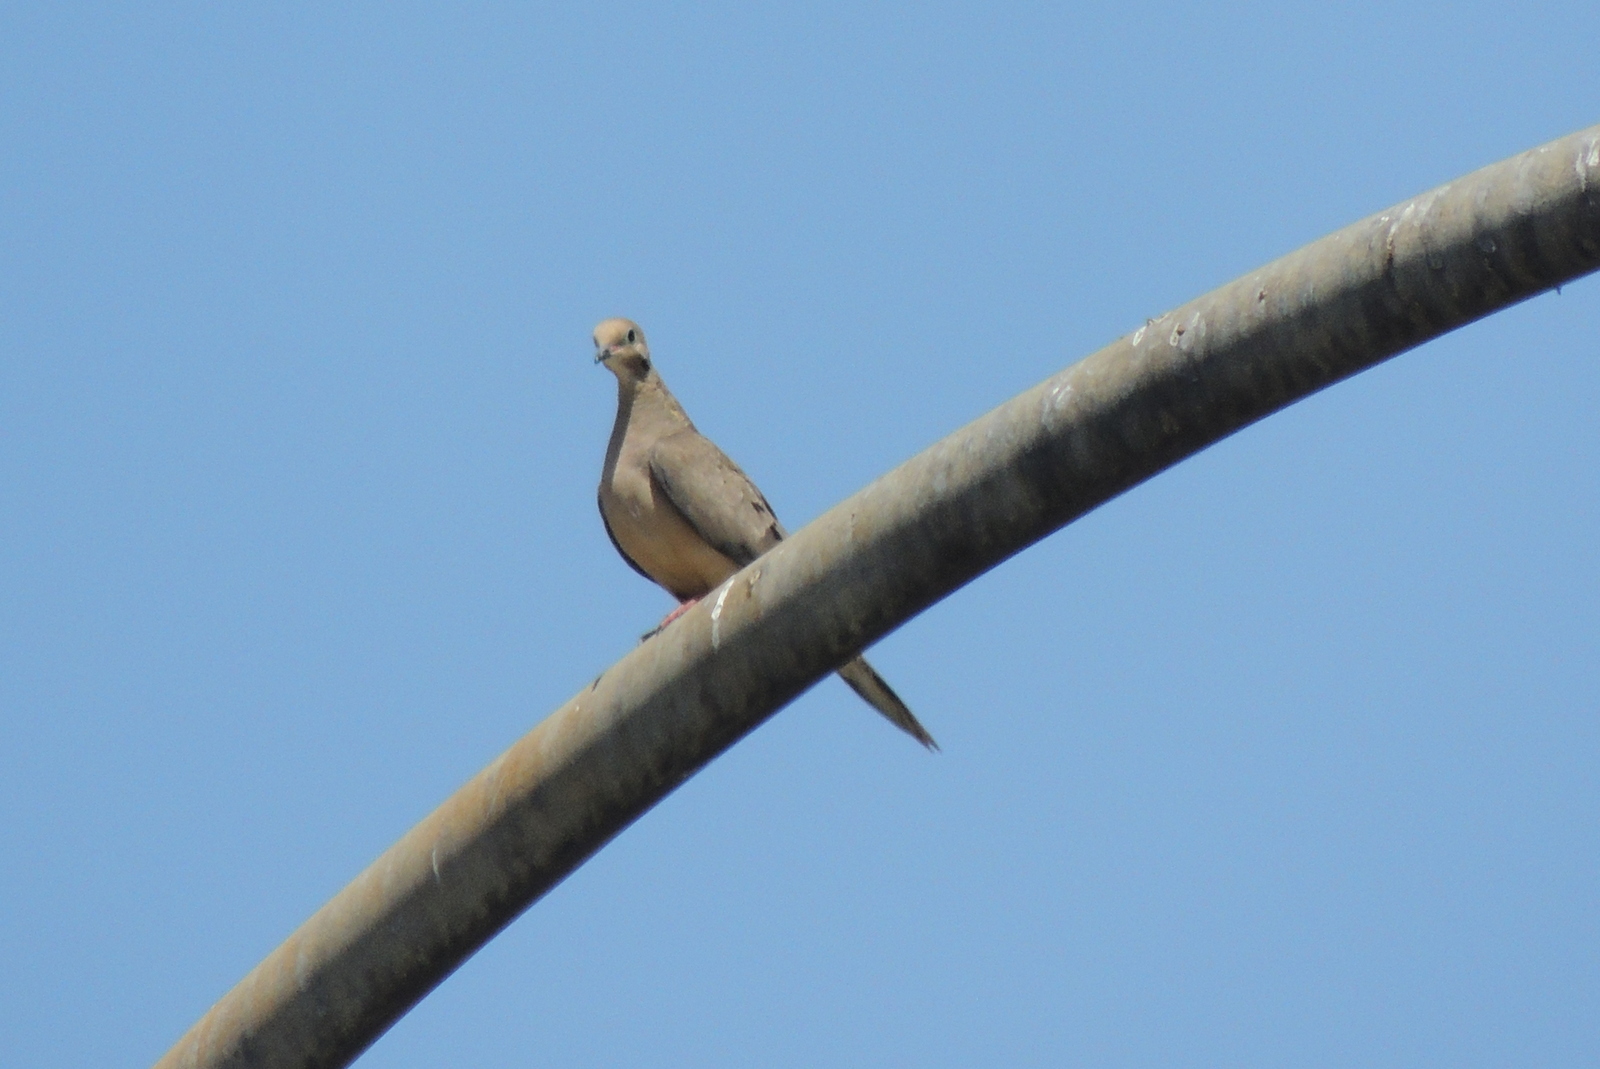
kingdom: Animalia
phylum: Chordata
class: Aves
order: Columbiformes
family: Columbidae
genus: Zenaida
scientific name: Zenaida macroura
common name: Mourning dove
